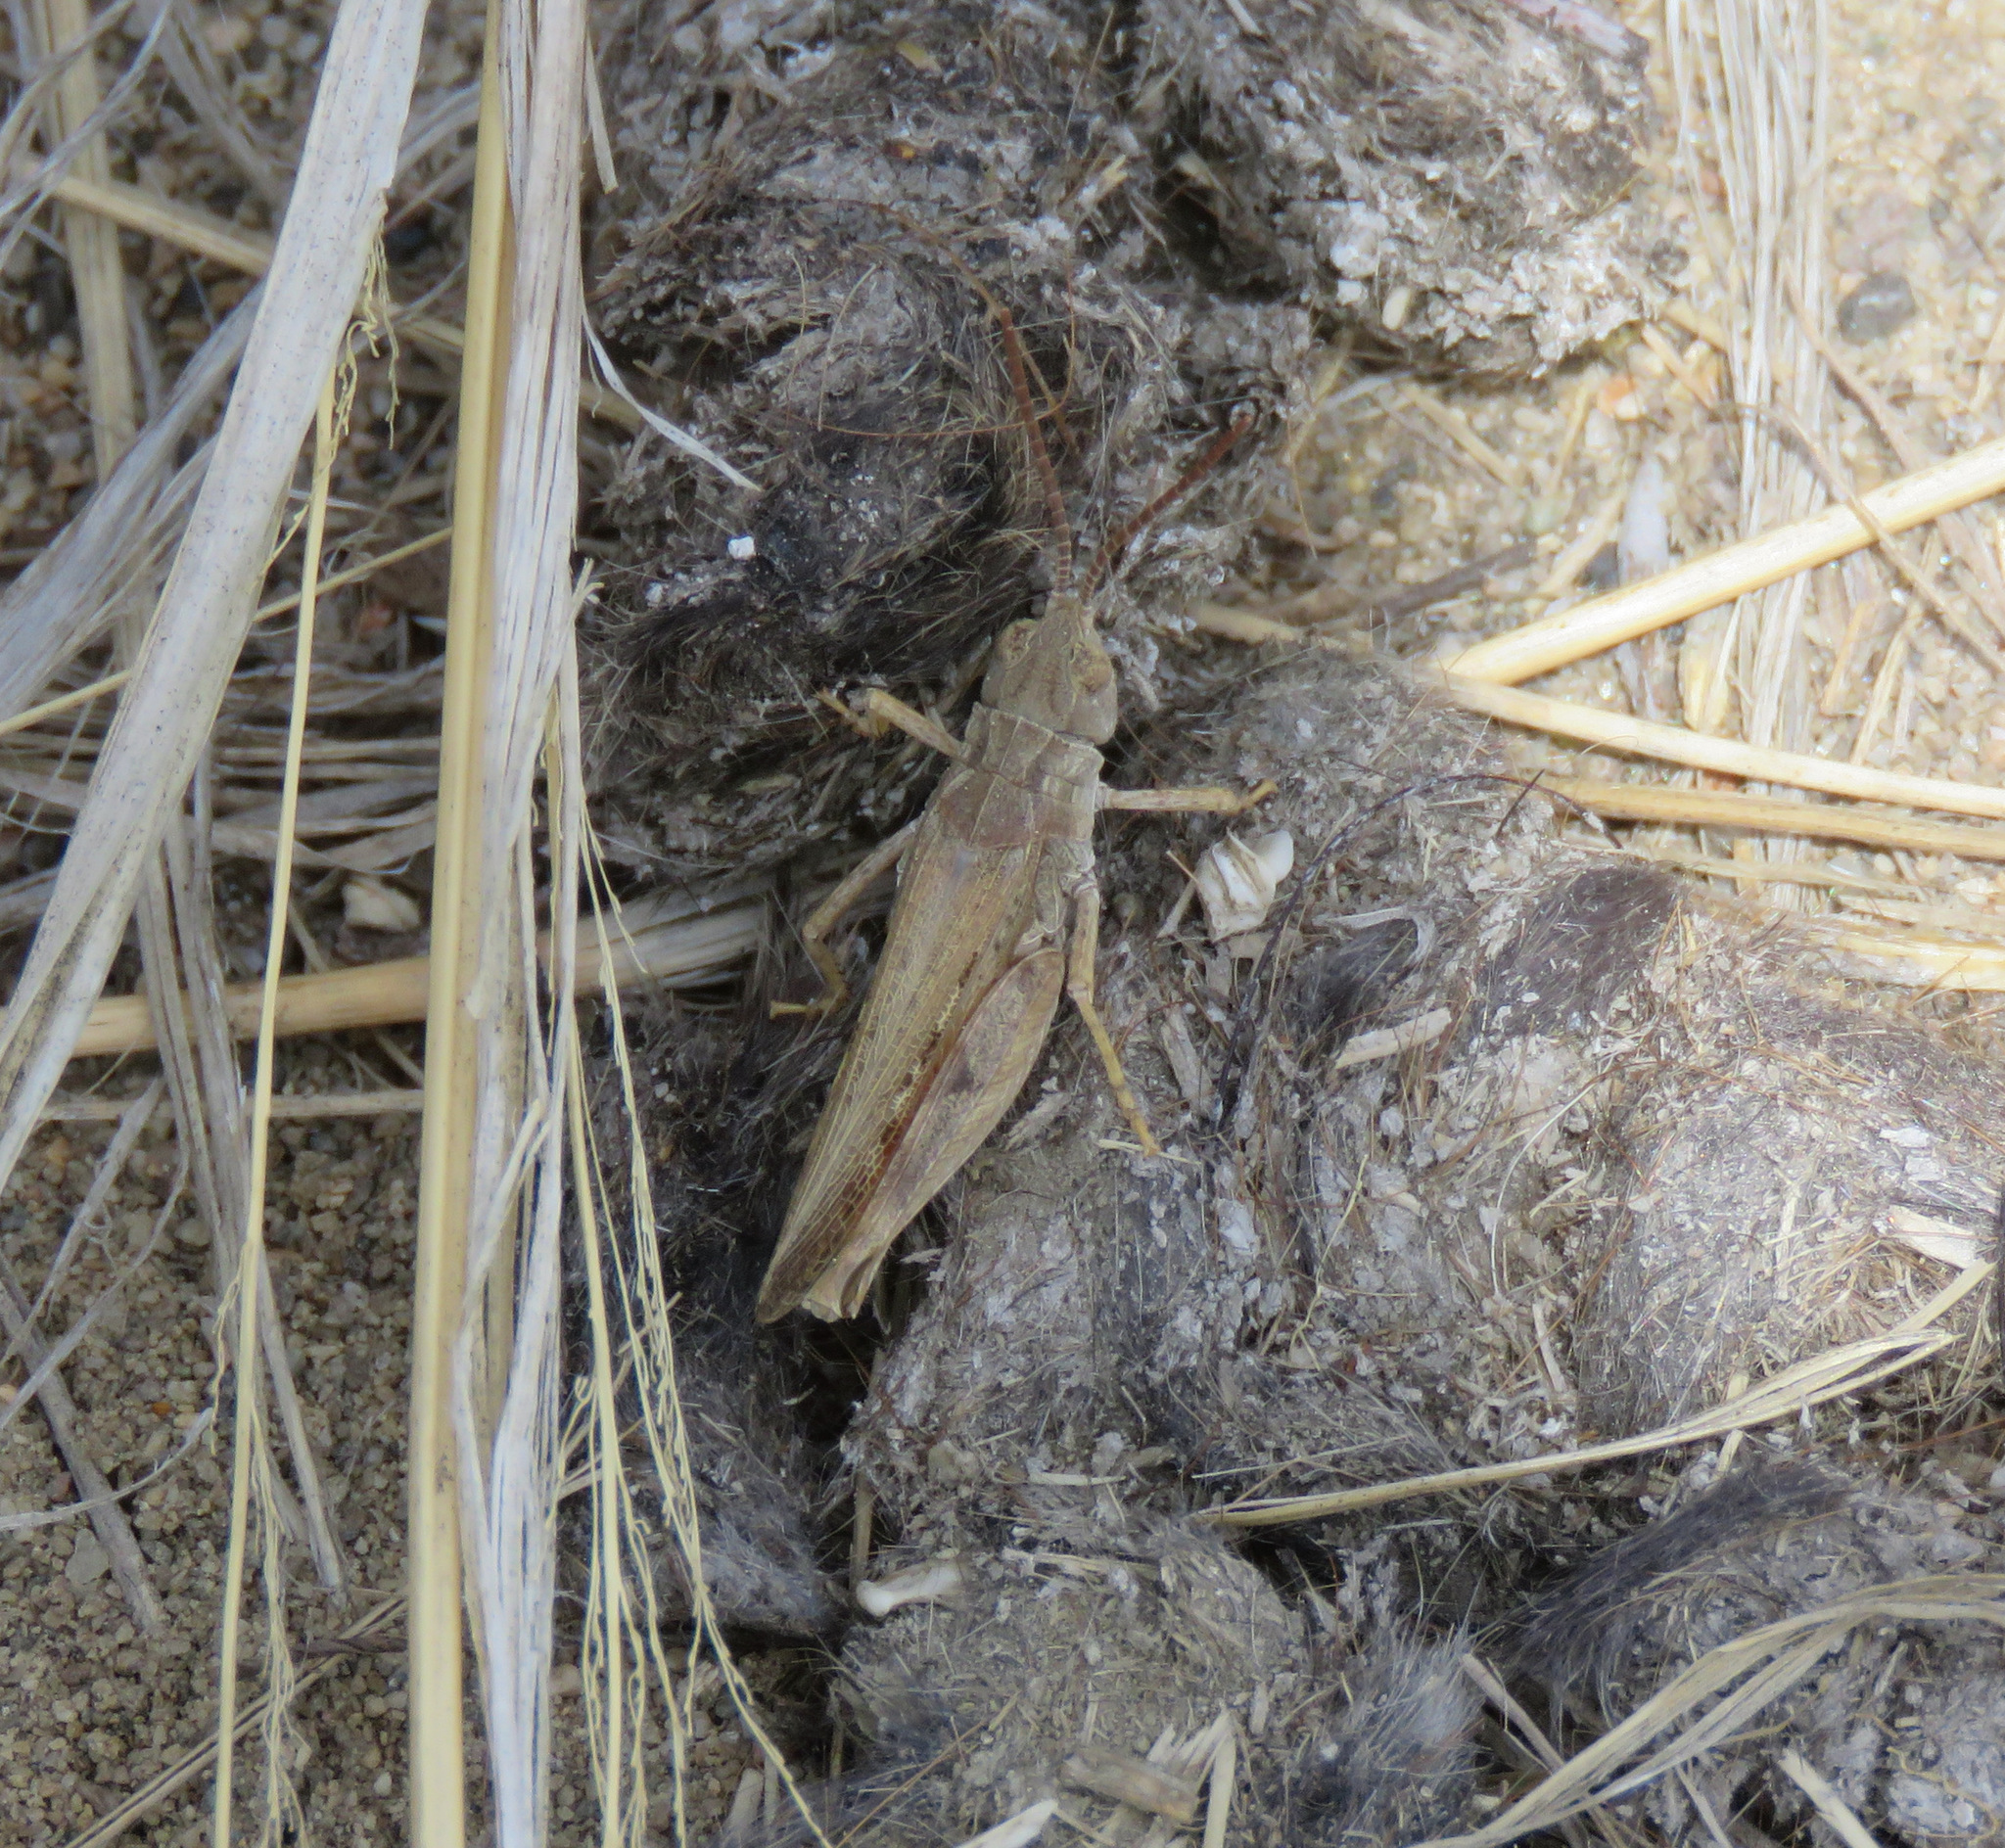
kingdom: Animalia
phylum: Arthropoda
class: Insecta
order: Orthoptera
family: Acrididae
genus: Psoloessa
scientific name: Psoloessa delicatula
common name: Brown-spotted range grasshopper
